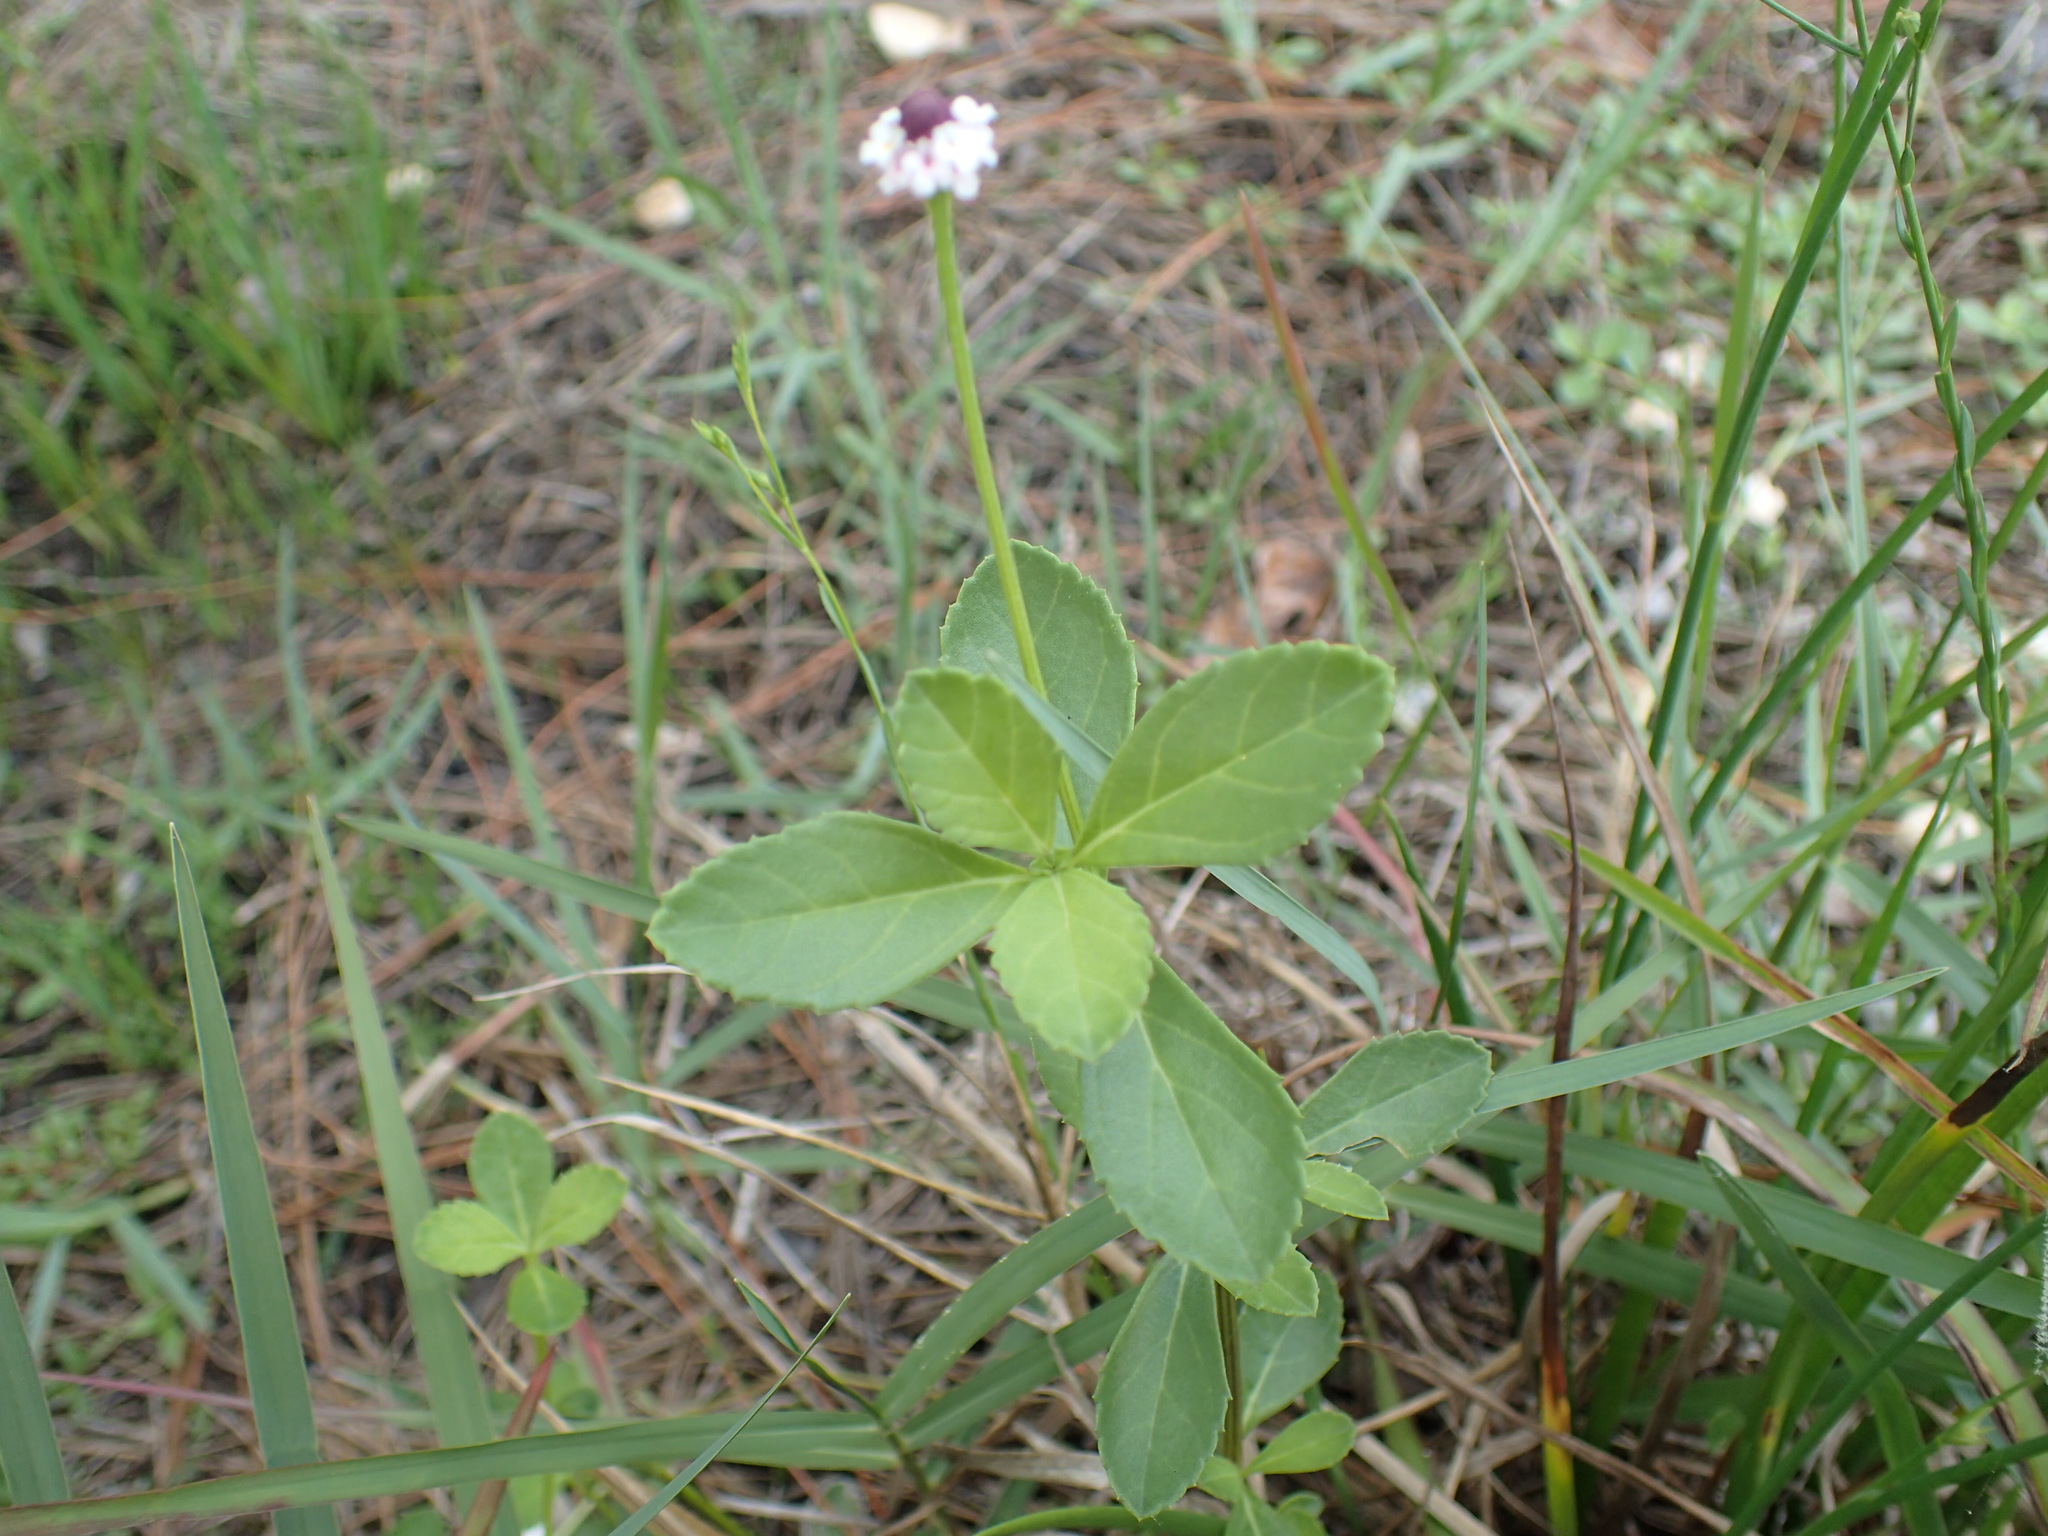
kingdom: Plantae
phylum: Tracheophyta
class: Magnoliopsida
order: Lamiales
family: Verbenaceae
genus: Phyla
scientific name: Phyla nodiflora
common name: Frogfruit
